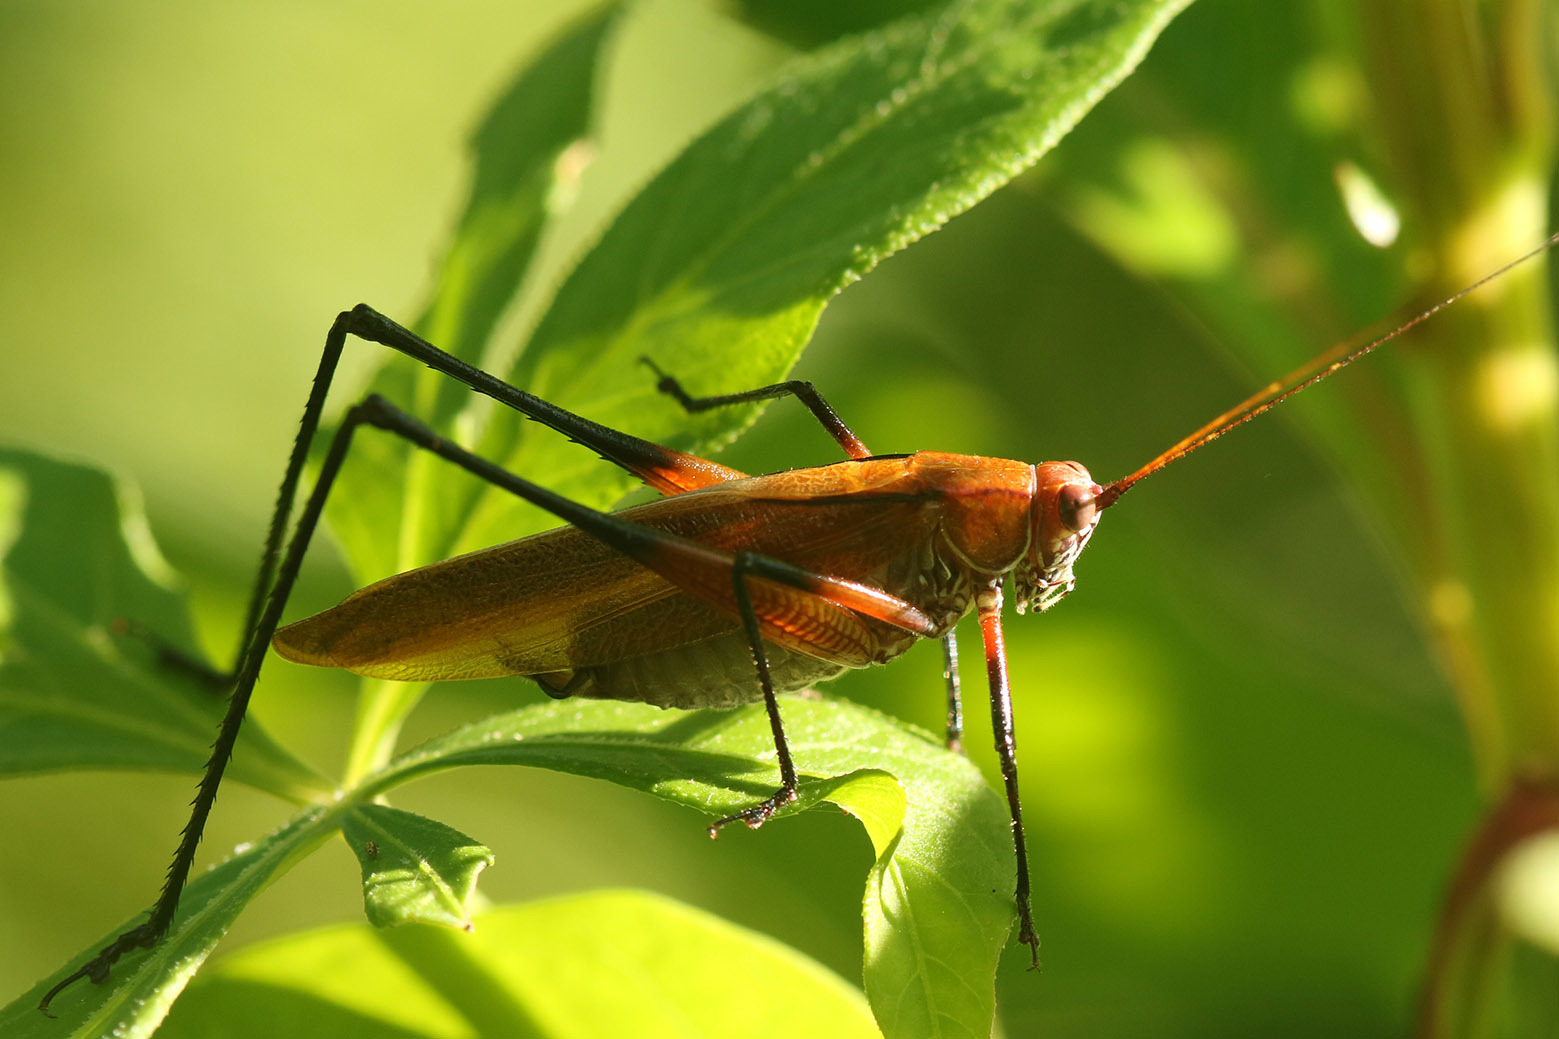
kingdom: Animalia
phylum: Arthropoda
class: Insecta
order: Orthoptera
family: Tettigoniidae
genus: Theudoria
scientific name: Theudoria melanocnemis
